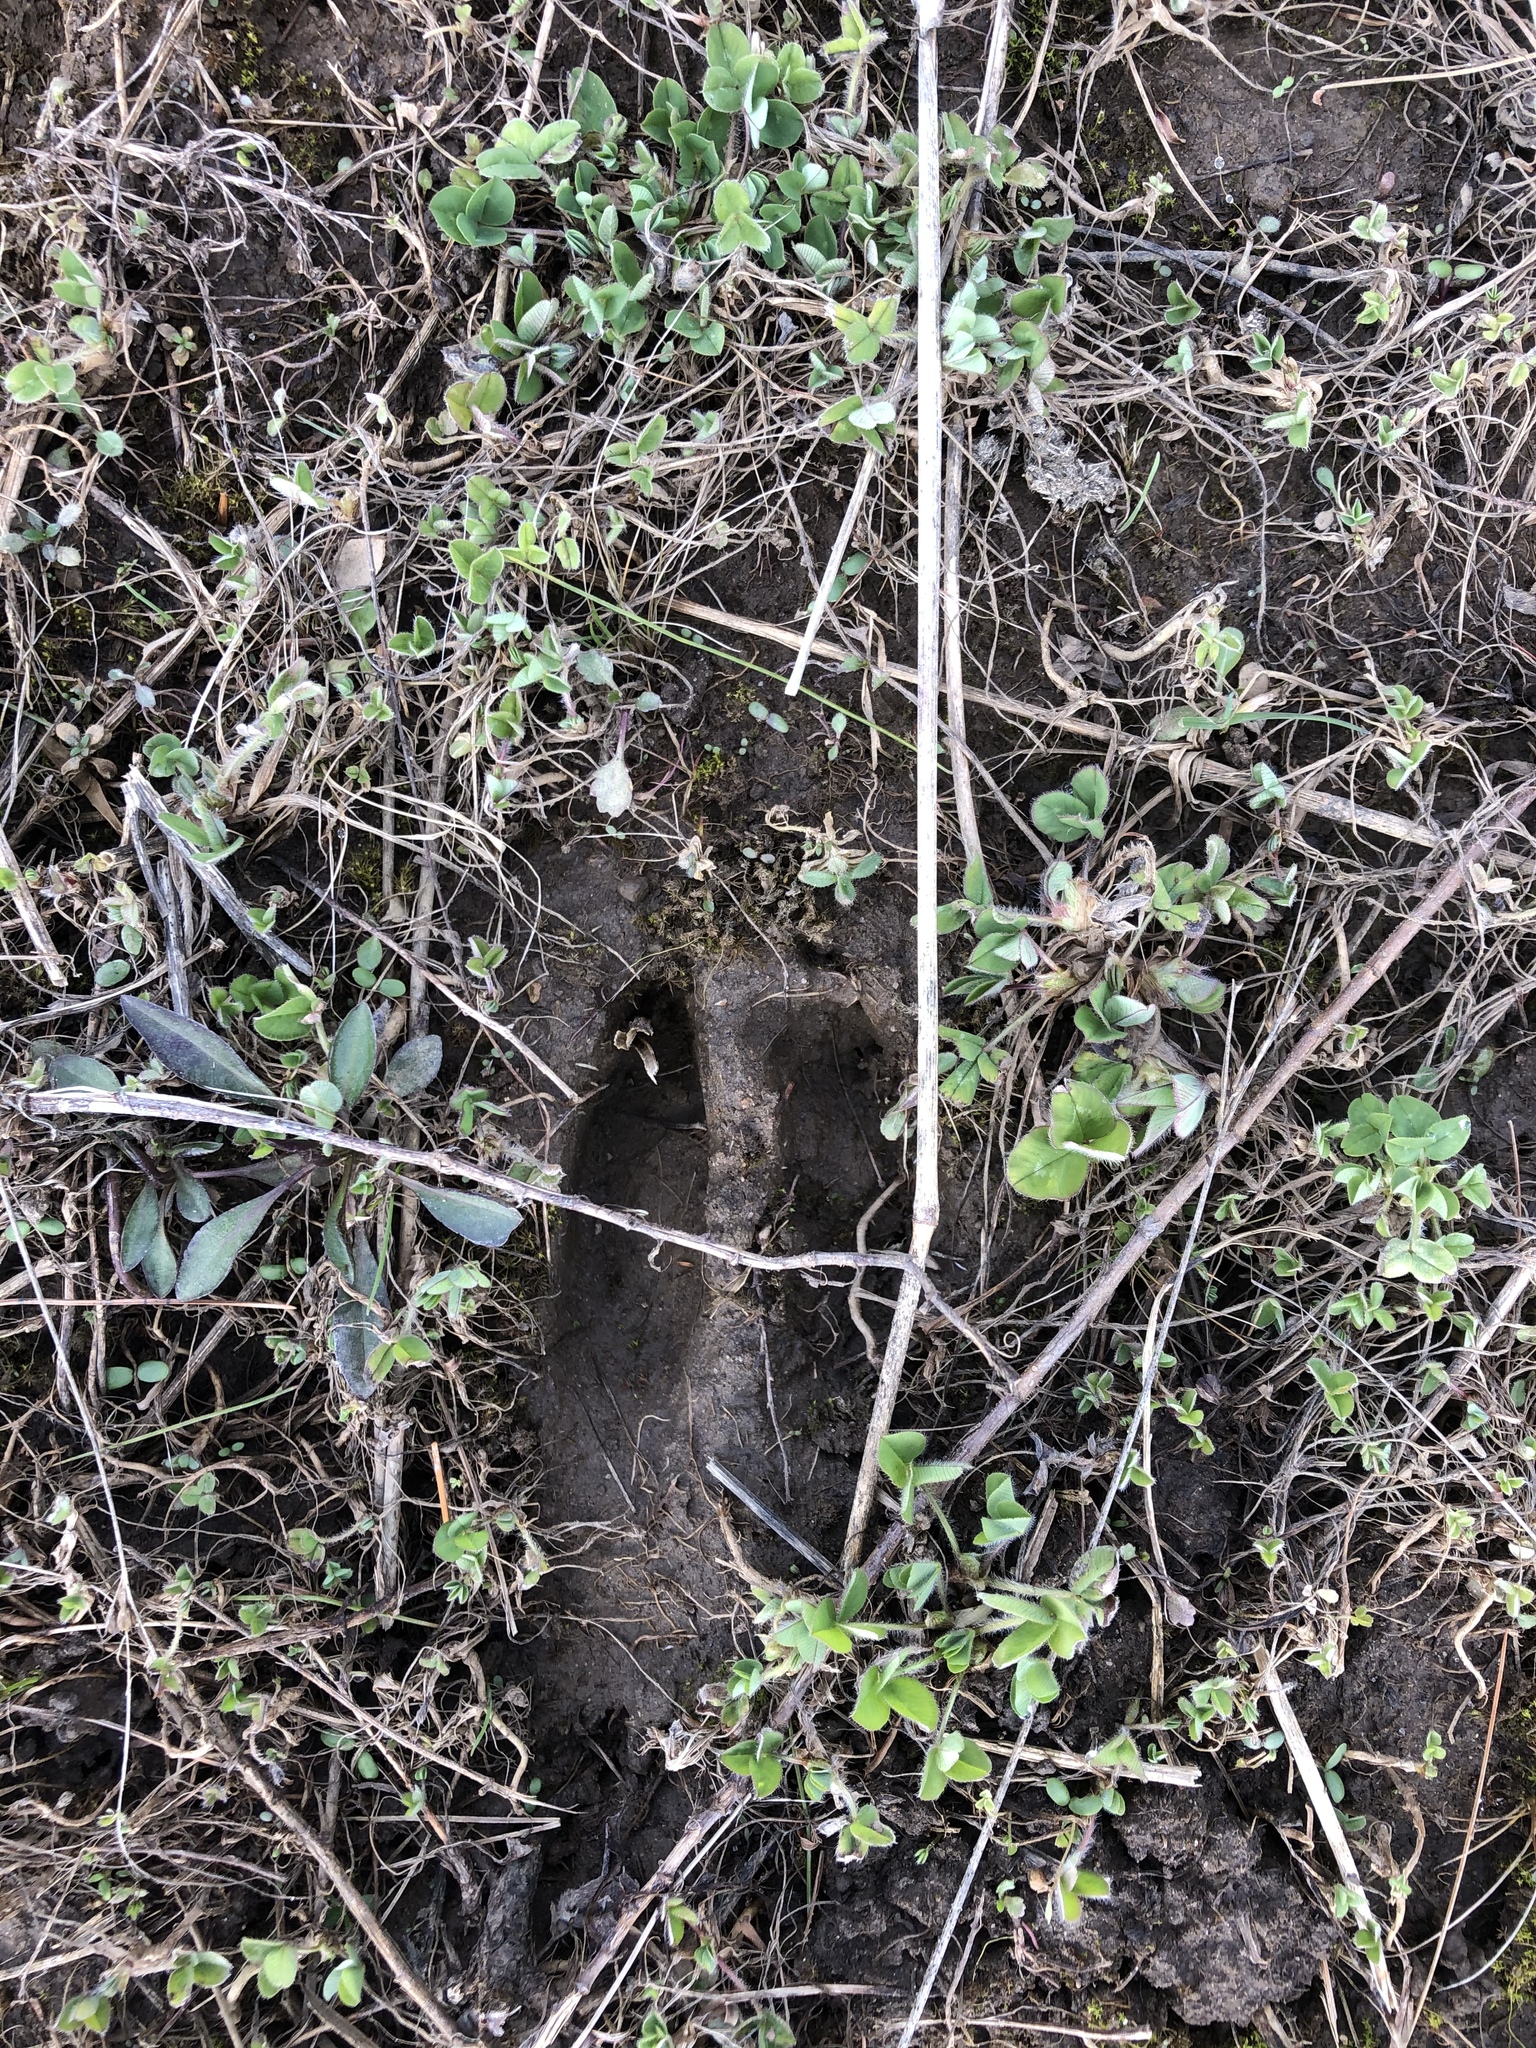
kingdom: Animalia
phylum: Chordata
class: Mammalia
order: Artiodactyla
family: Cervidae
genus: Odocoileus
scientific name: Odocoileus virginianus
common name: White-tailed deer
